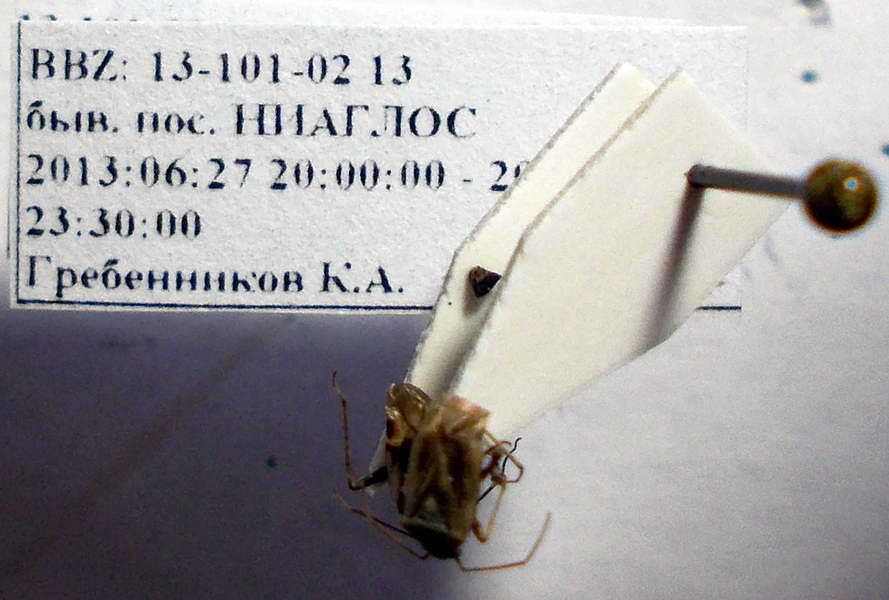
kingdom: Animalia
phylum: Arthropoda
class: Insecta
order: Hemiptera
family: Miridae
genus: Polymerus
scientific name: Polymerus cognatus
